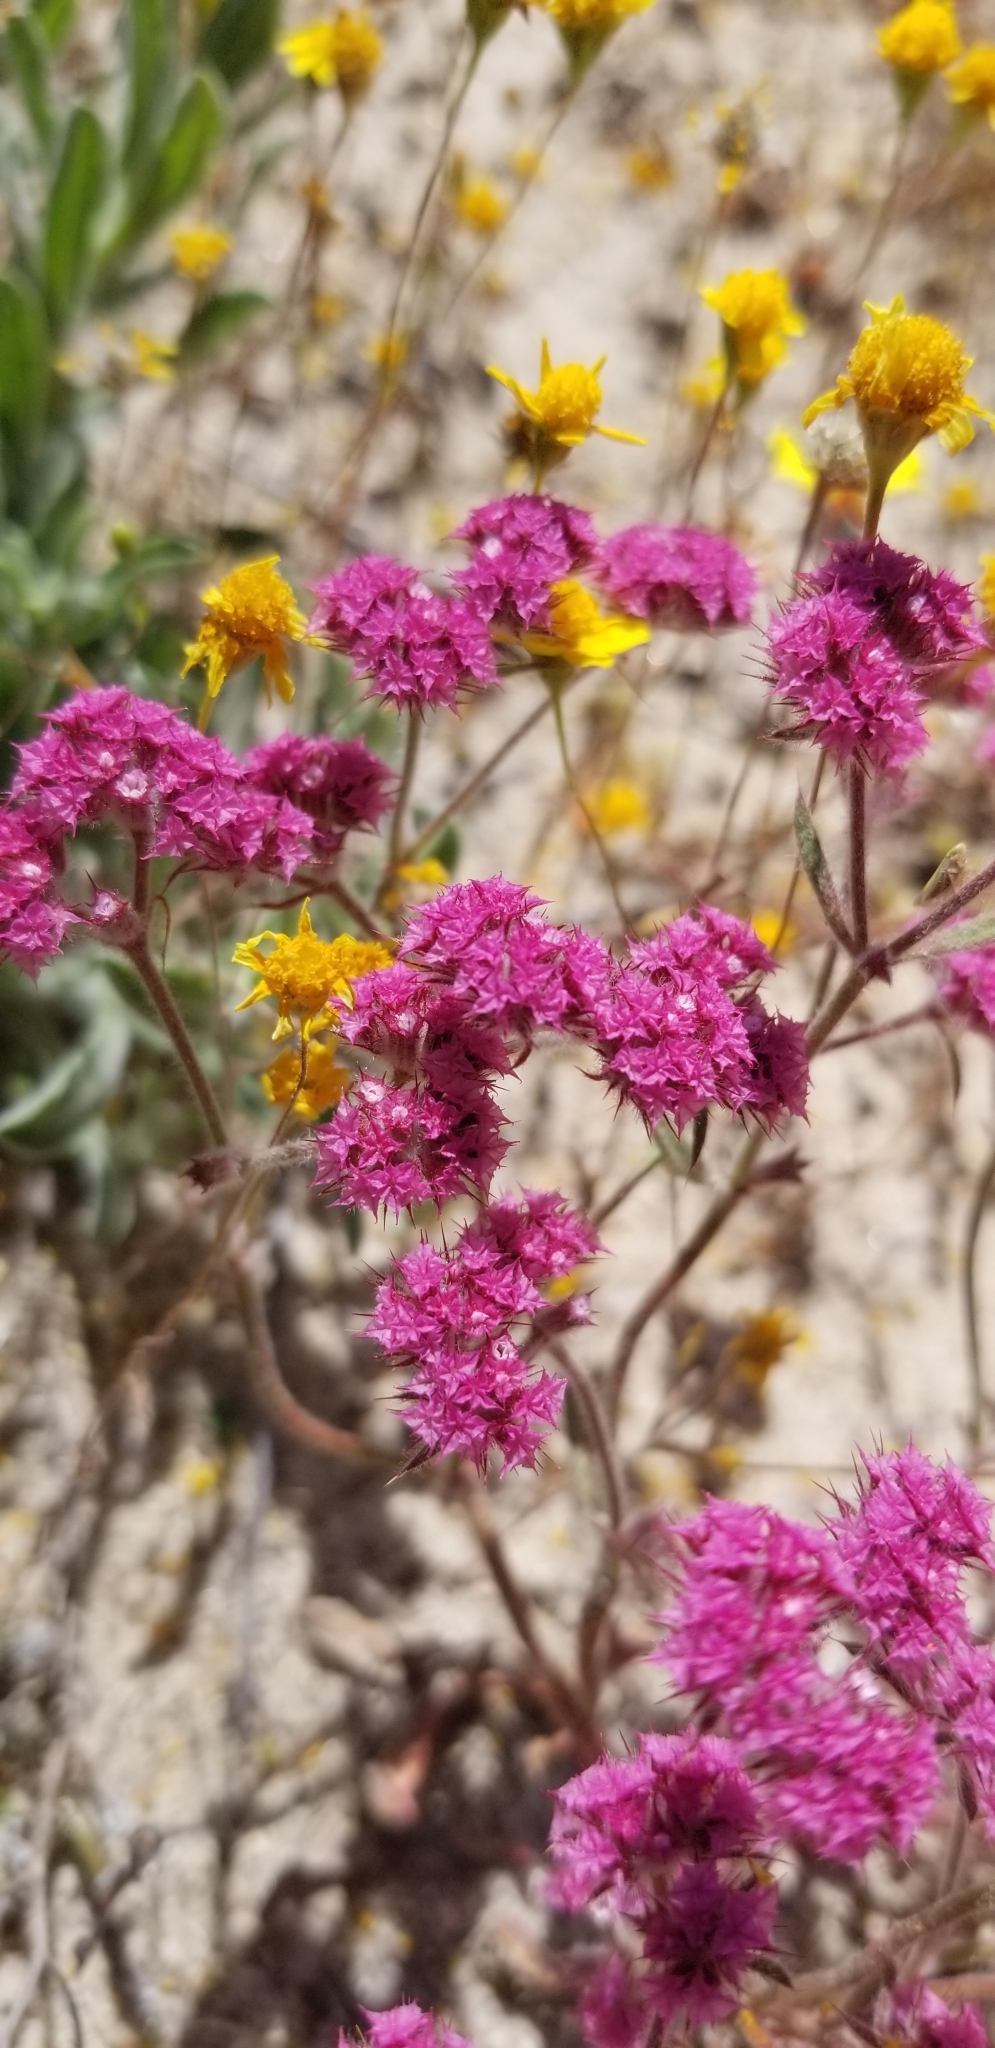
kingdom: Plantae
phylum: Tracheophyta
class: Magnoliopsida
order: Caryophyllales
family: Polygonaceae
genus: Chorizanthe
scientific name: Chorizanthe douglasii
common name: Douglas's spineflower
